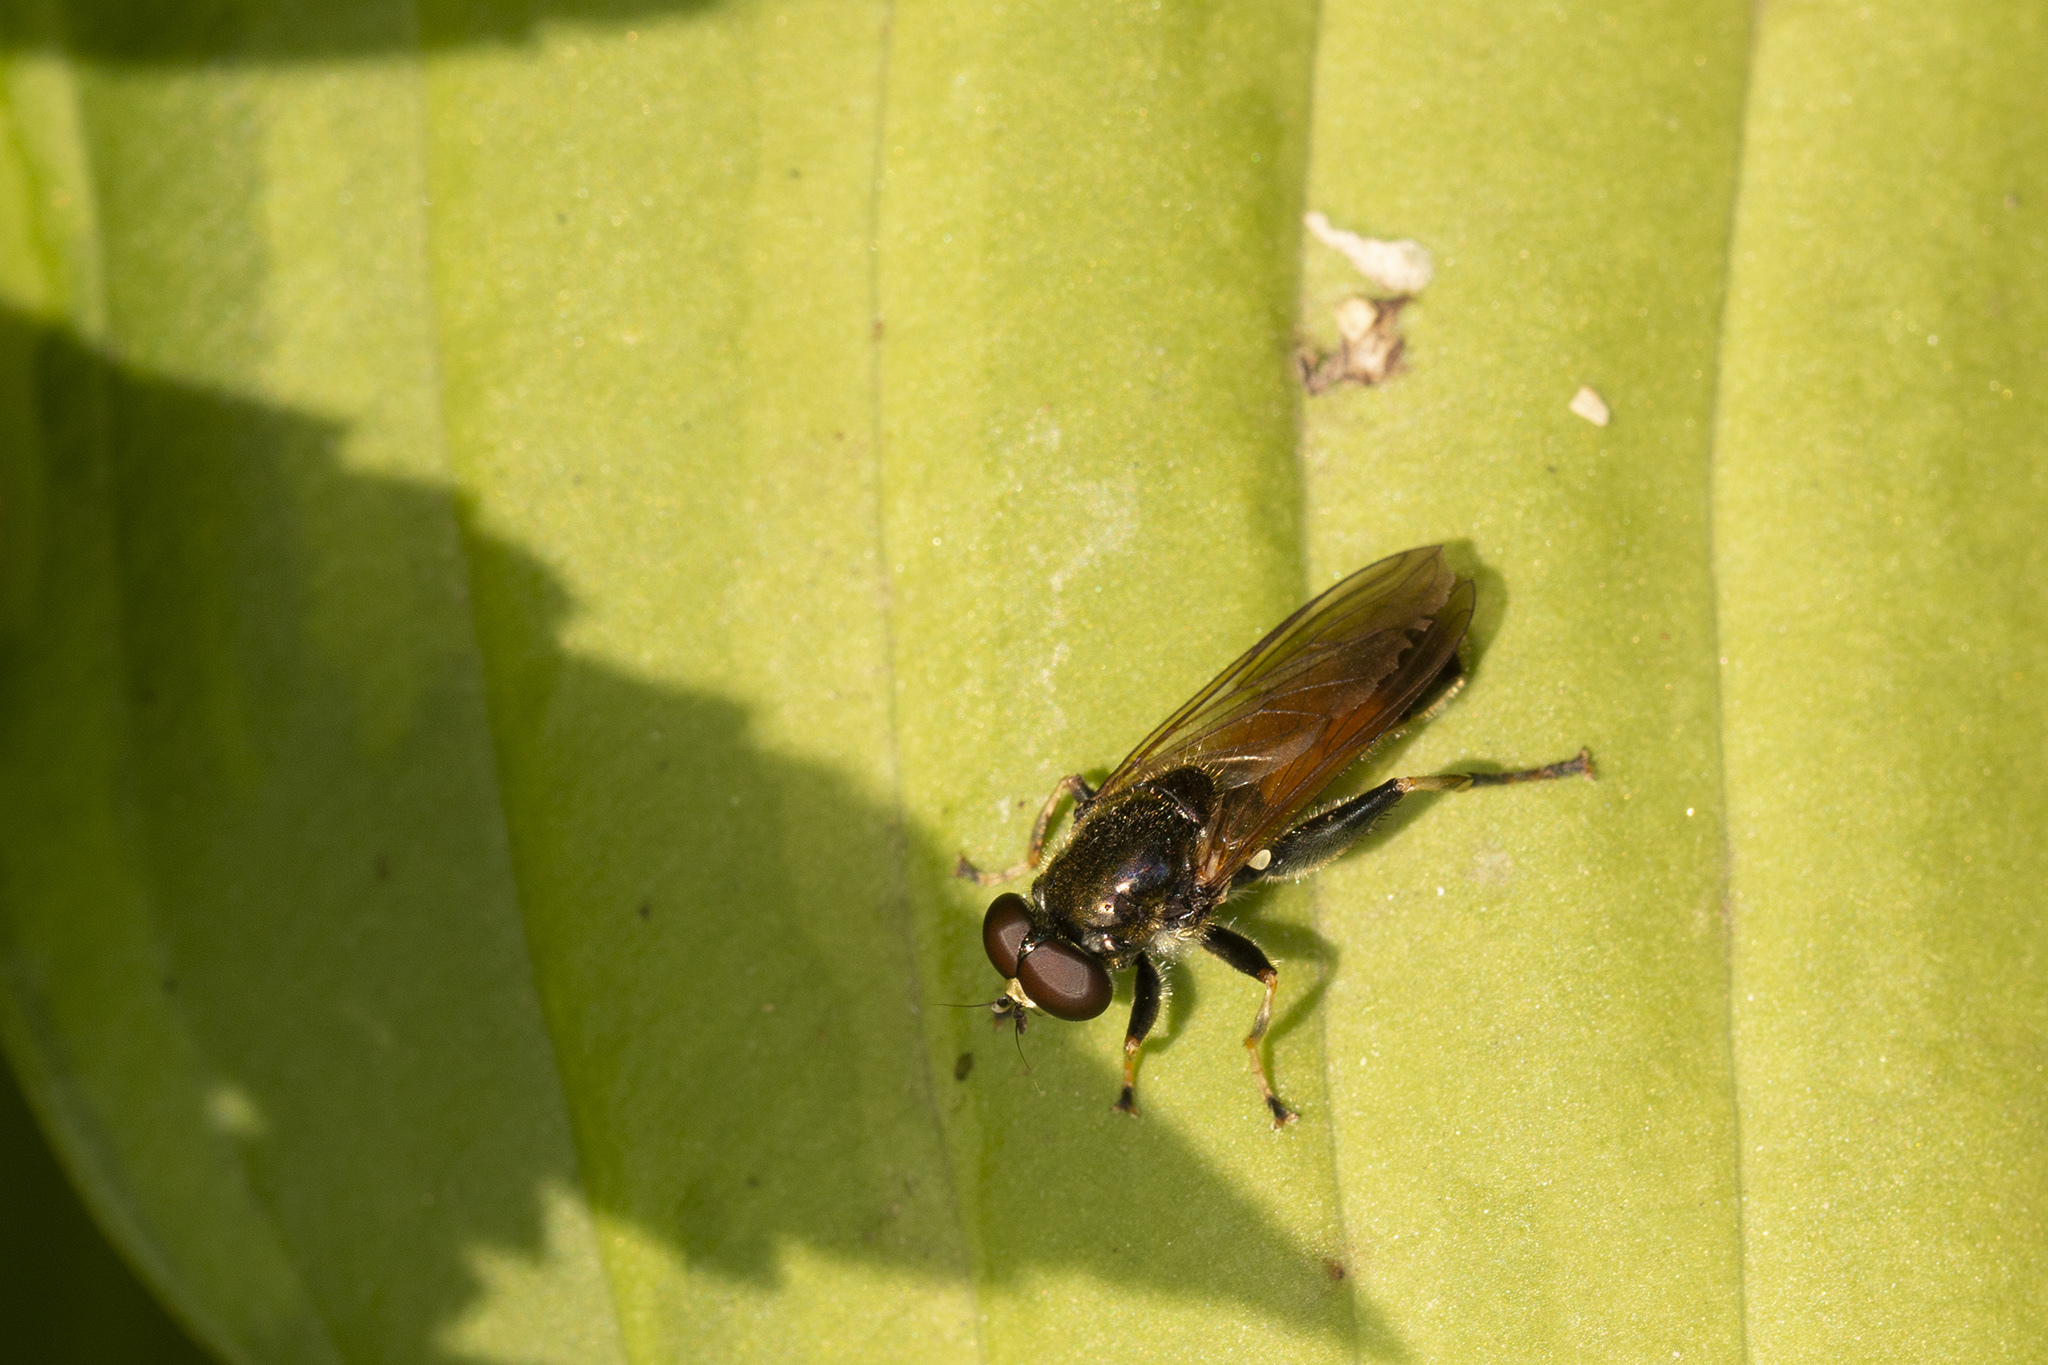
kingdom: Animalia
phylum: Arthropoda
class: Insecta
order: Diptera
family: Syrphidae
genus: Xylota
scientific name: Xylota segnis
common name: Brown-toed forest fly
